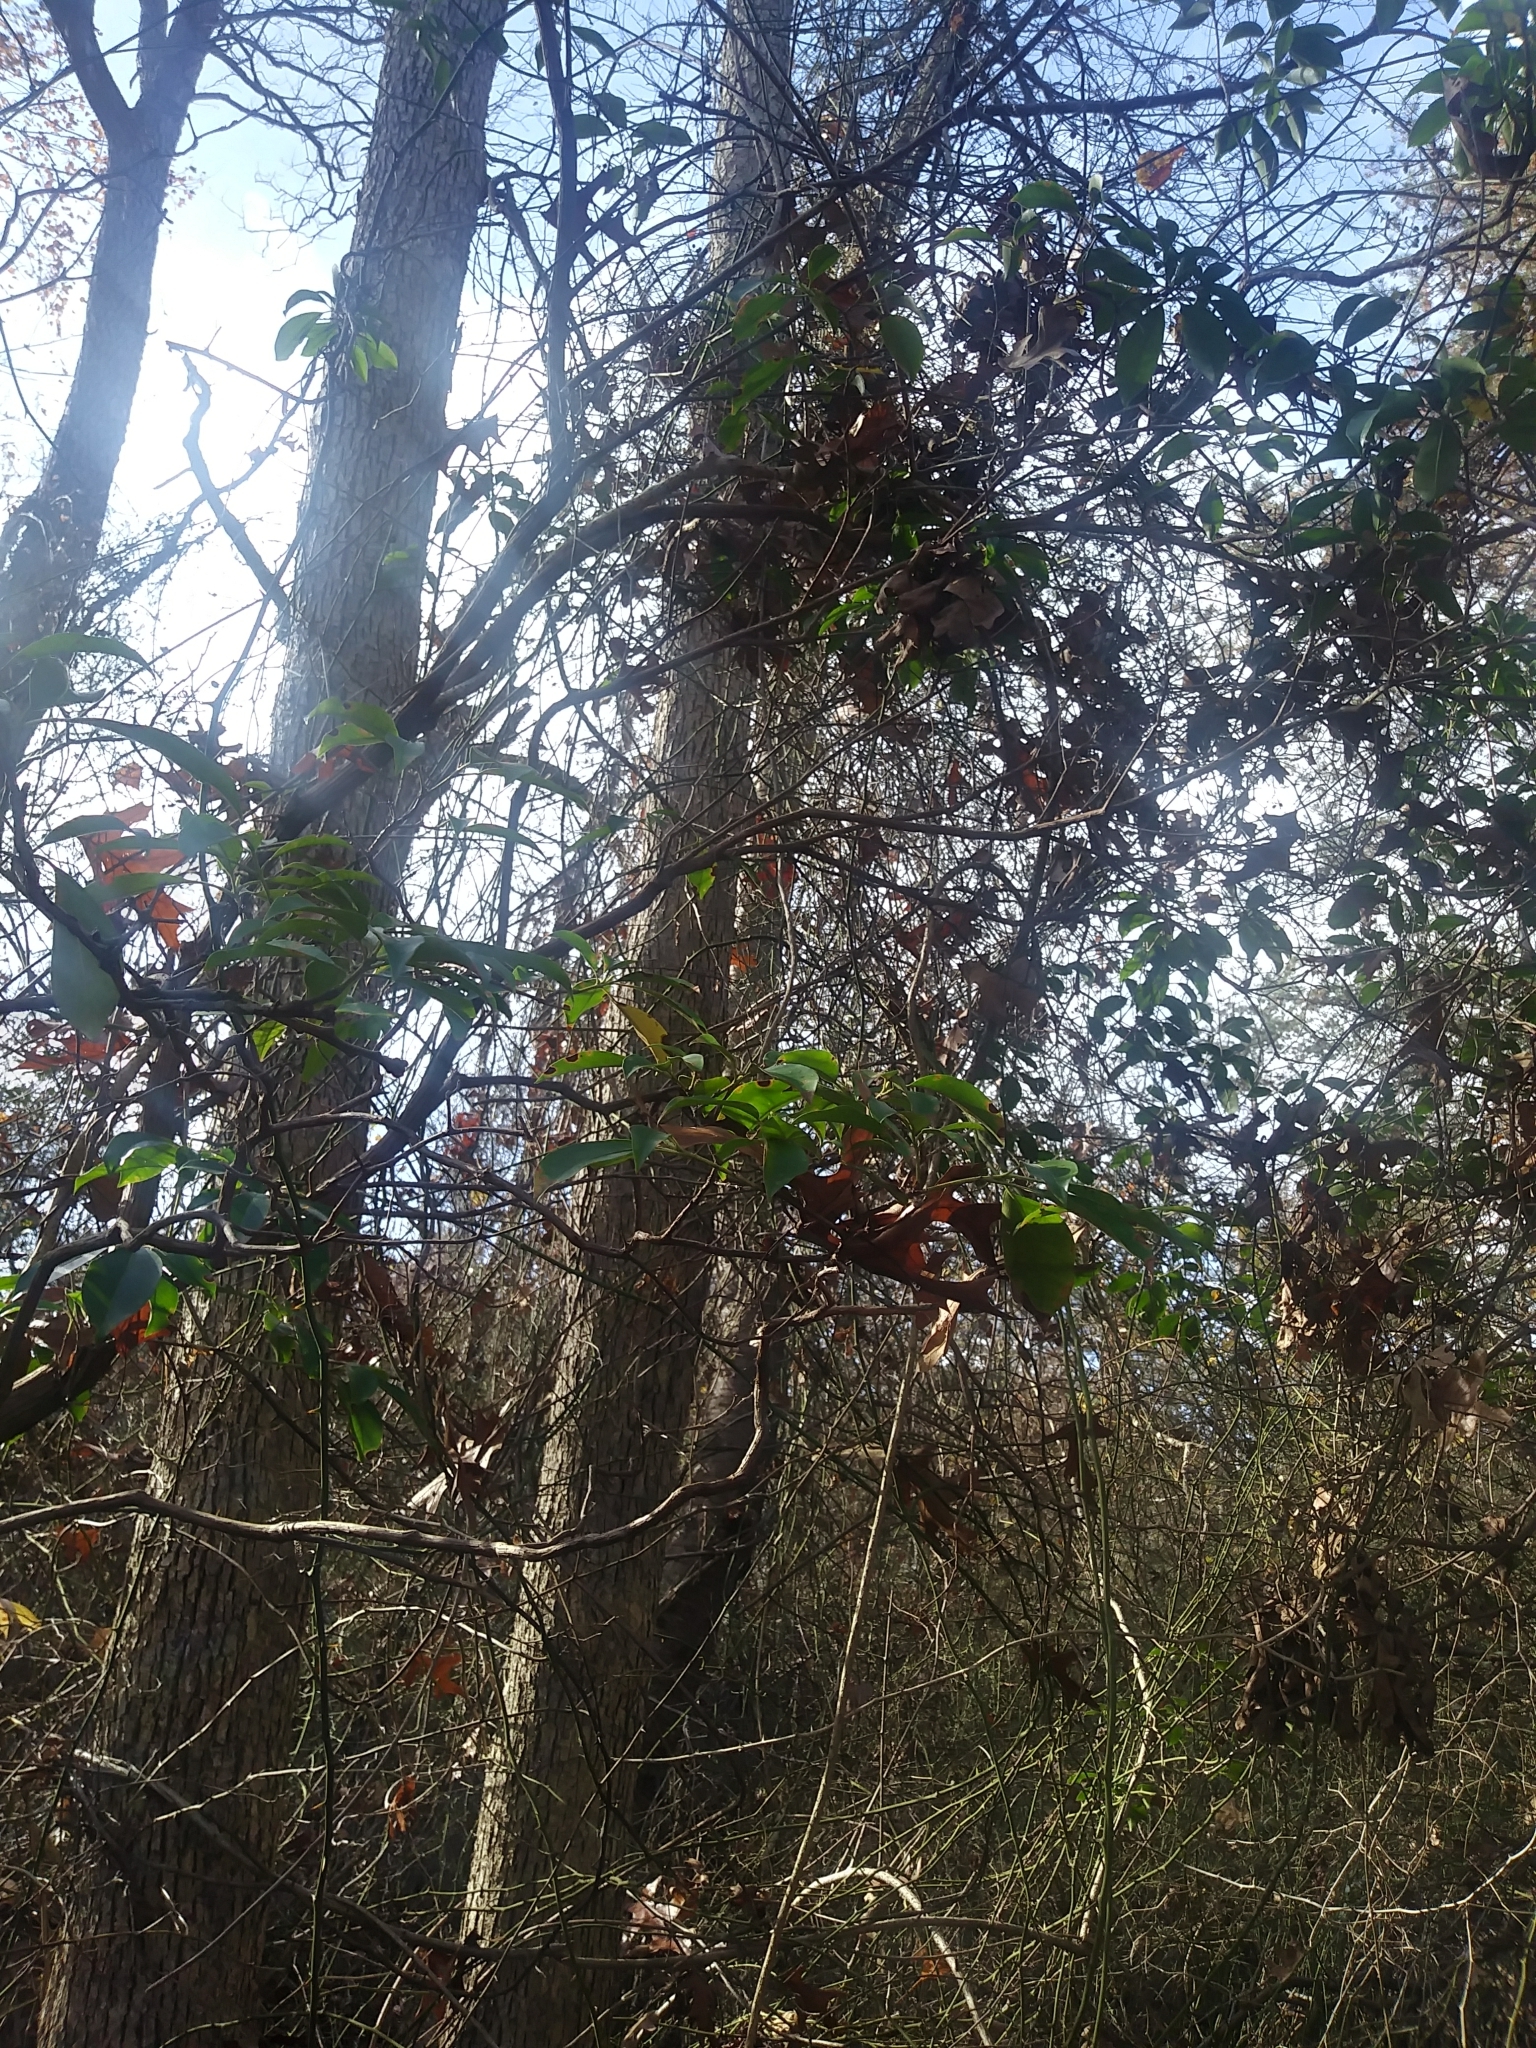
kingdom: Plantae
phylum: Tracheophyta
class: Magnoliopsida
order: Ericales
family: Ericaceae
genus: Kalmia
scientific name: Kalmia latifolia
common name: Mountain-laurel
